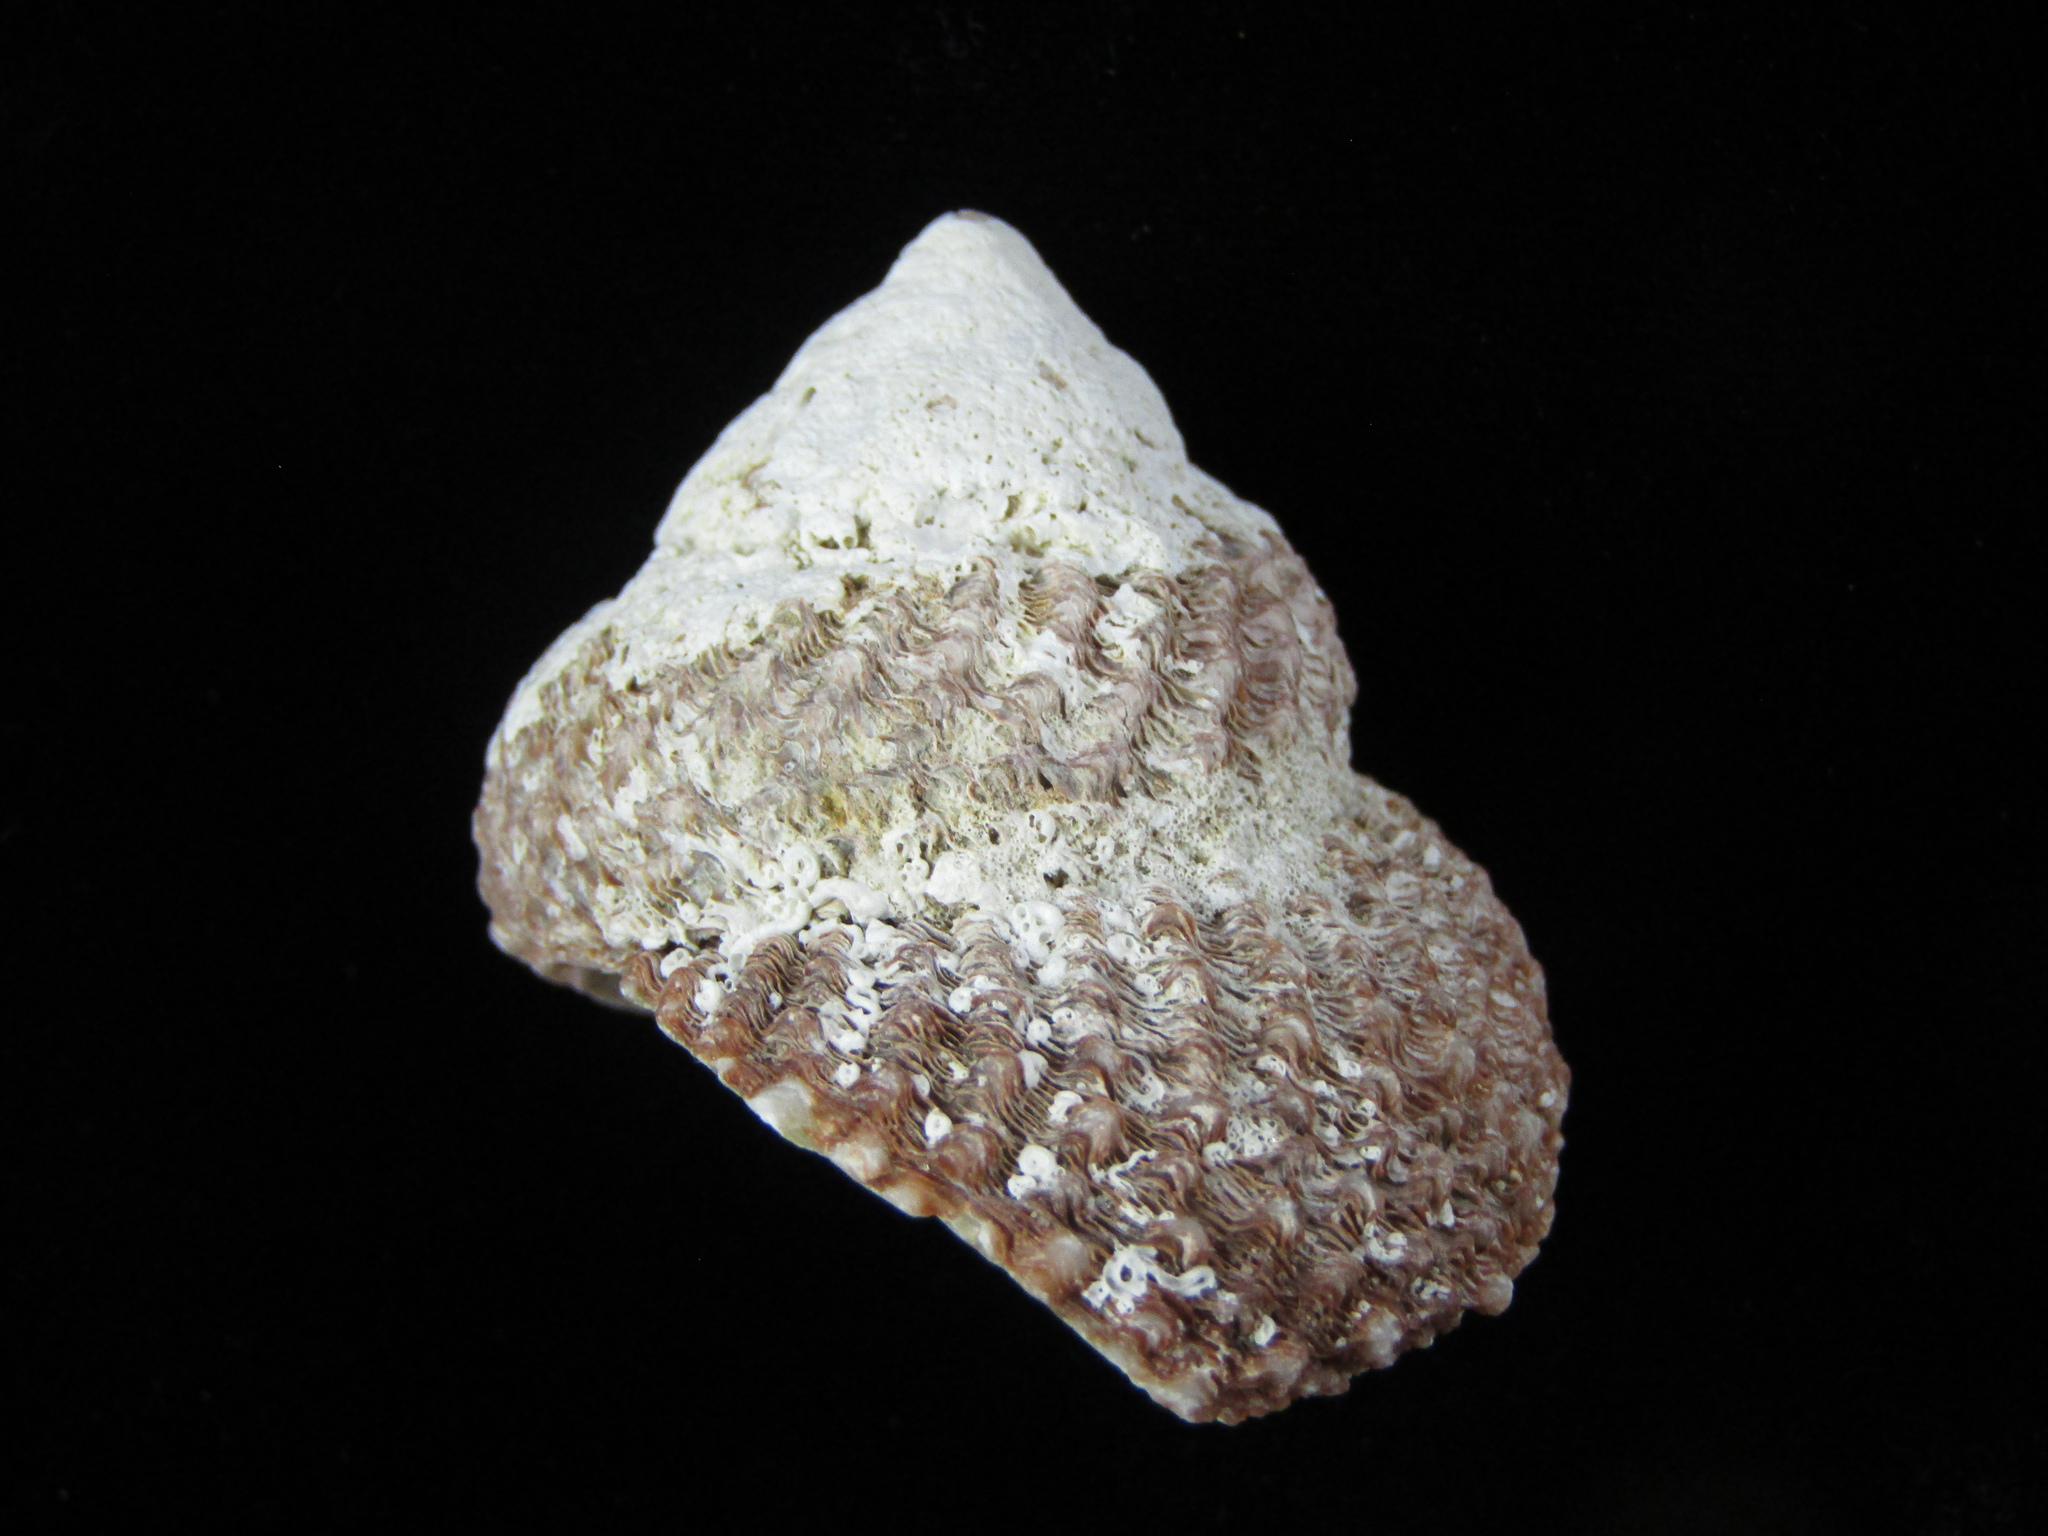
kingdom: Animalia
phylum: Mollusca
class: Gastropoda
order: Trochida
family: Turbinidae
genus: Cookia
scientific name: Cookia sulcata
